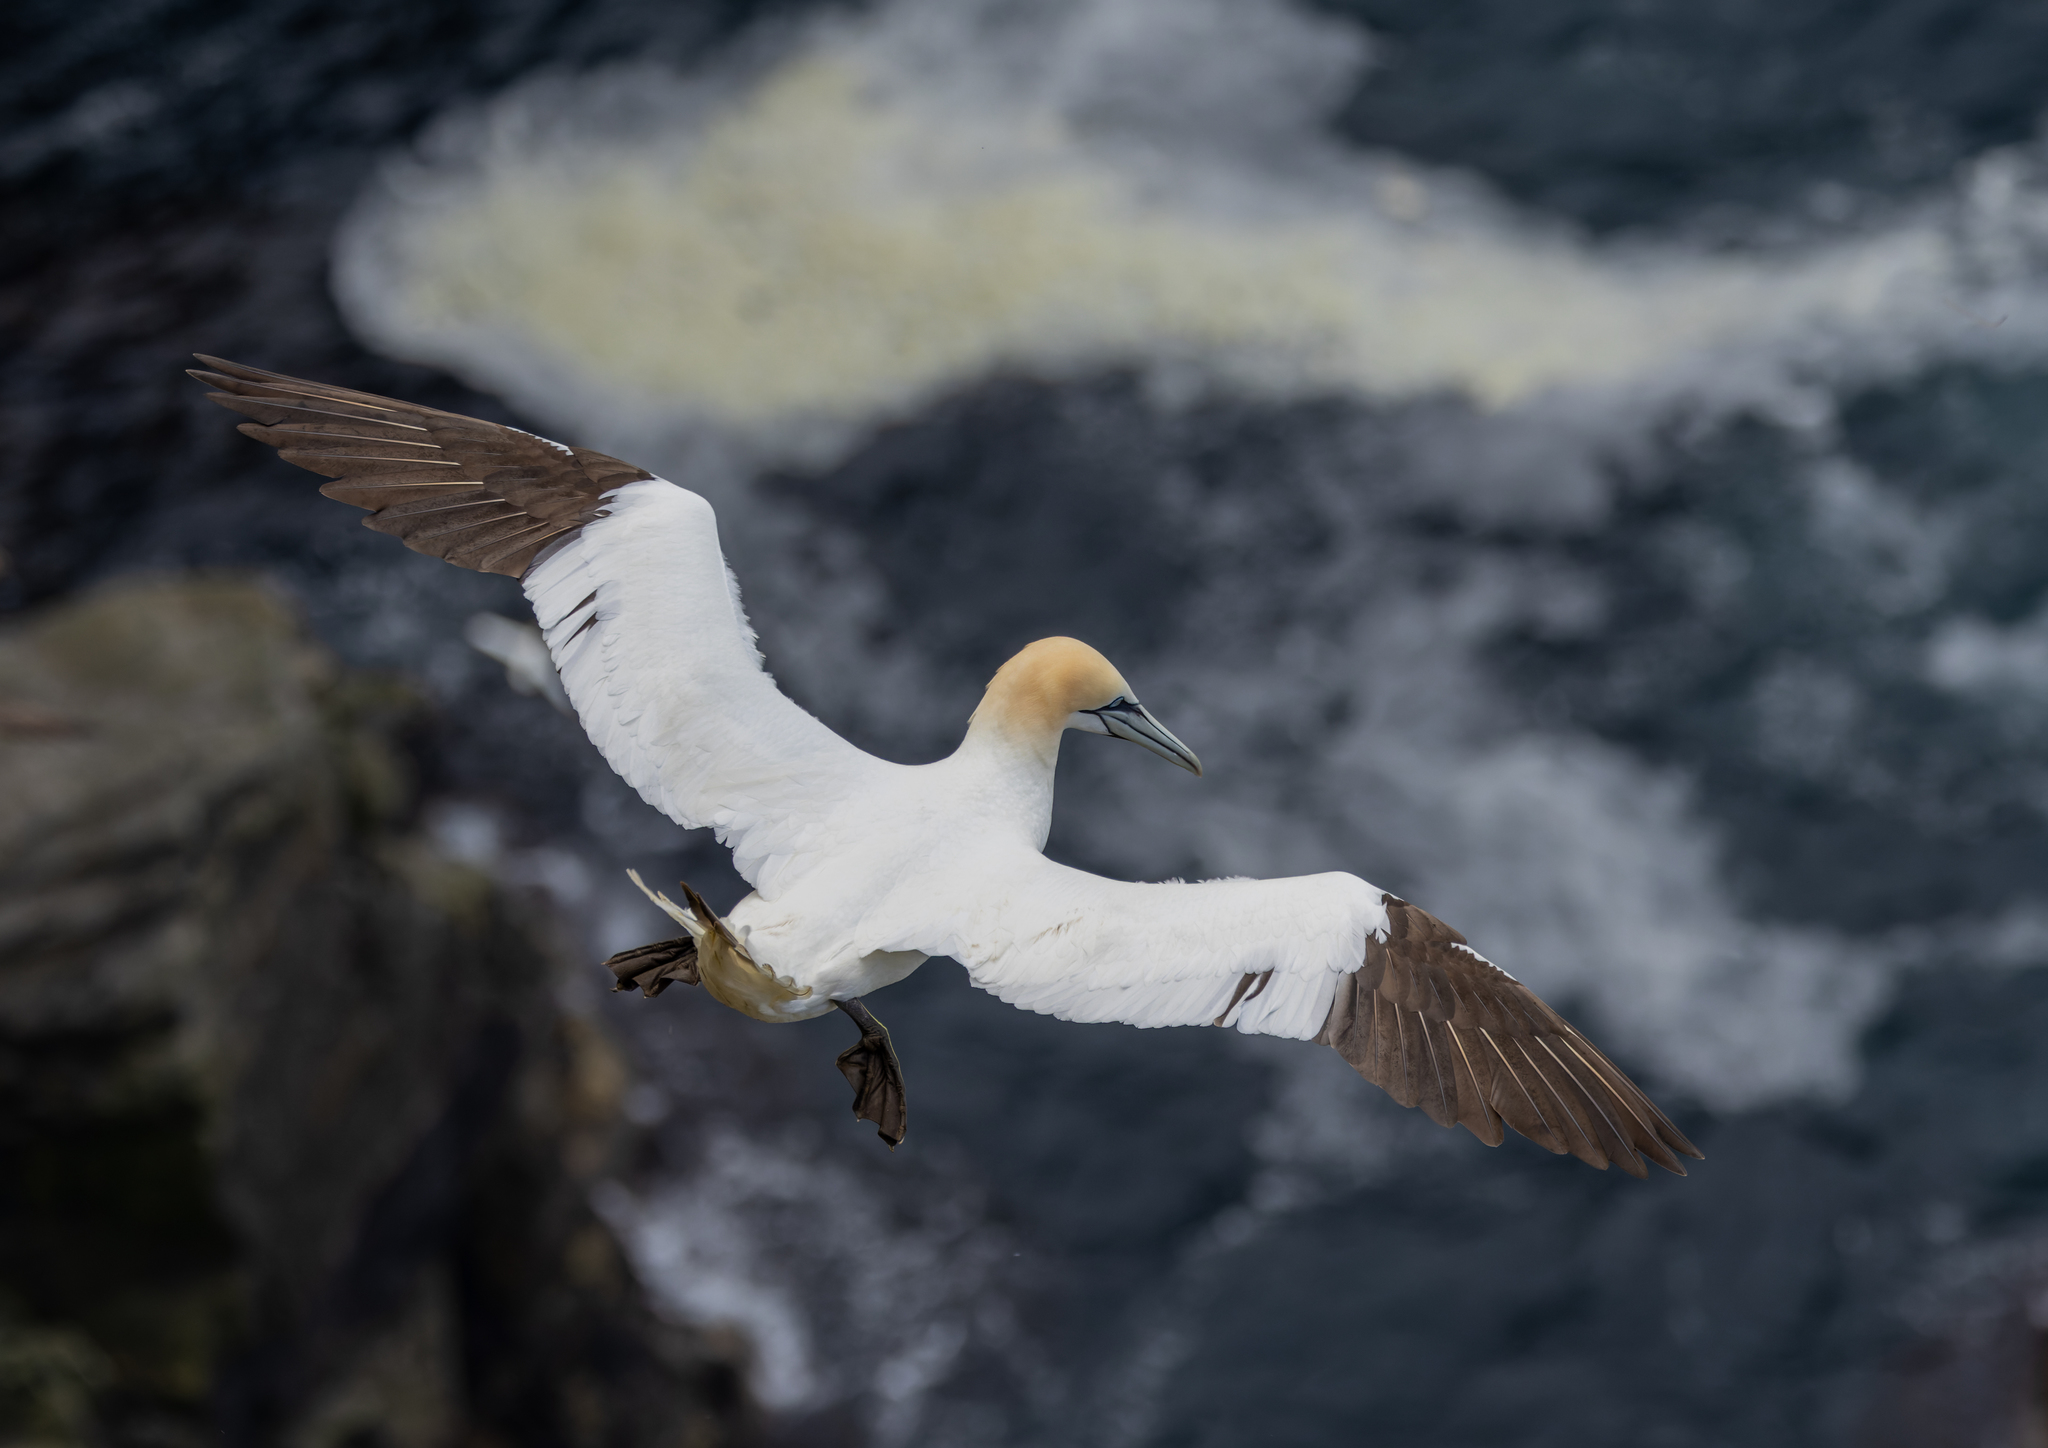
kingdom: Animalia
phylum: Chordata
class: Aves
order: Suliformes
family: Sulidae
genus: Morus
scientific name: Morus bassanus
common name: Northern gannet
